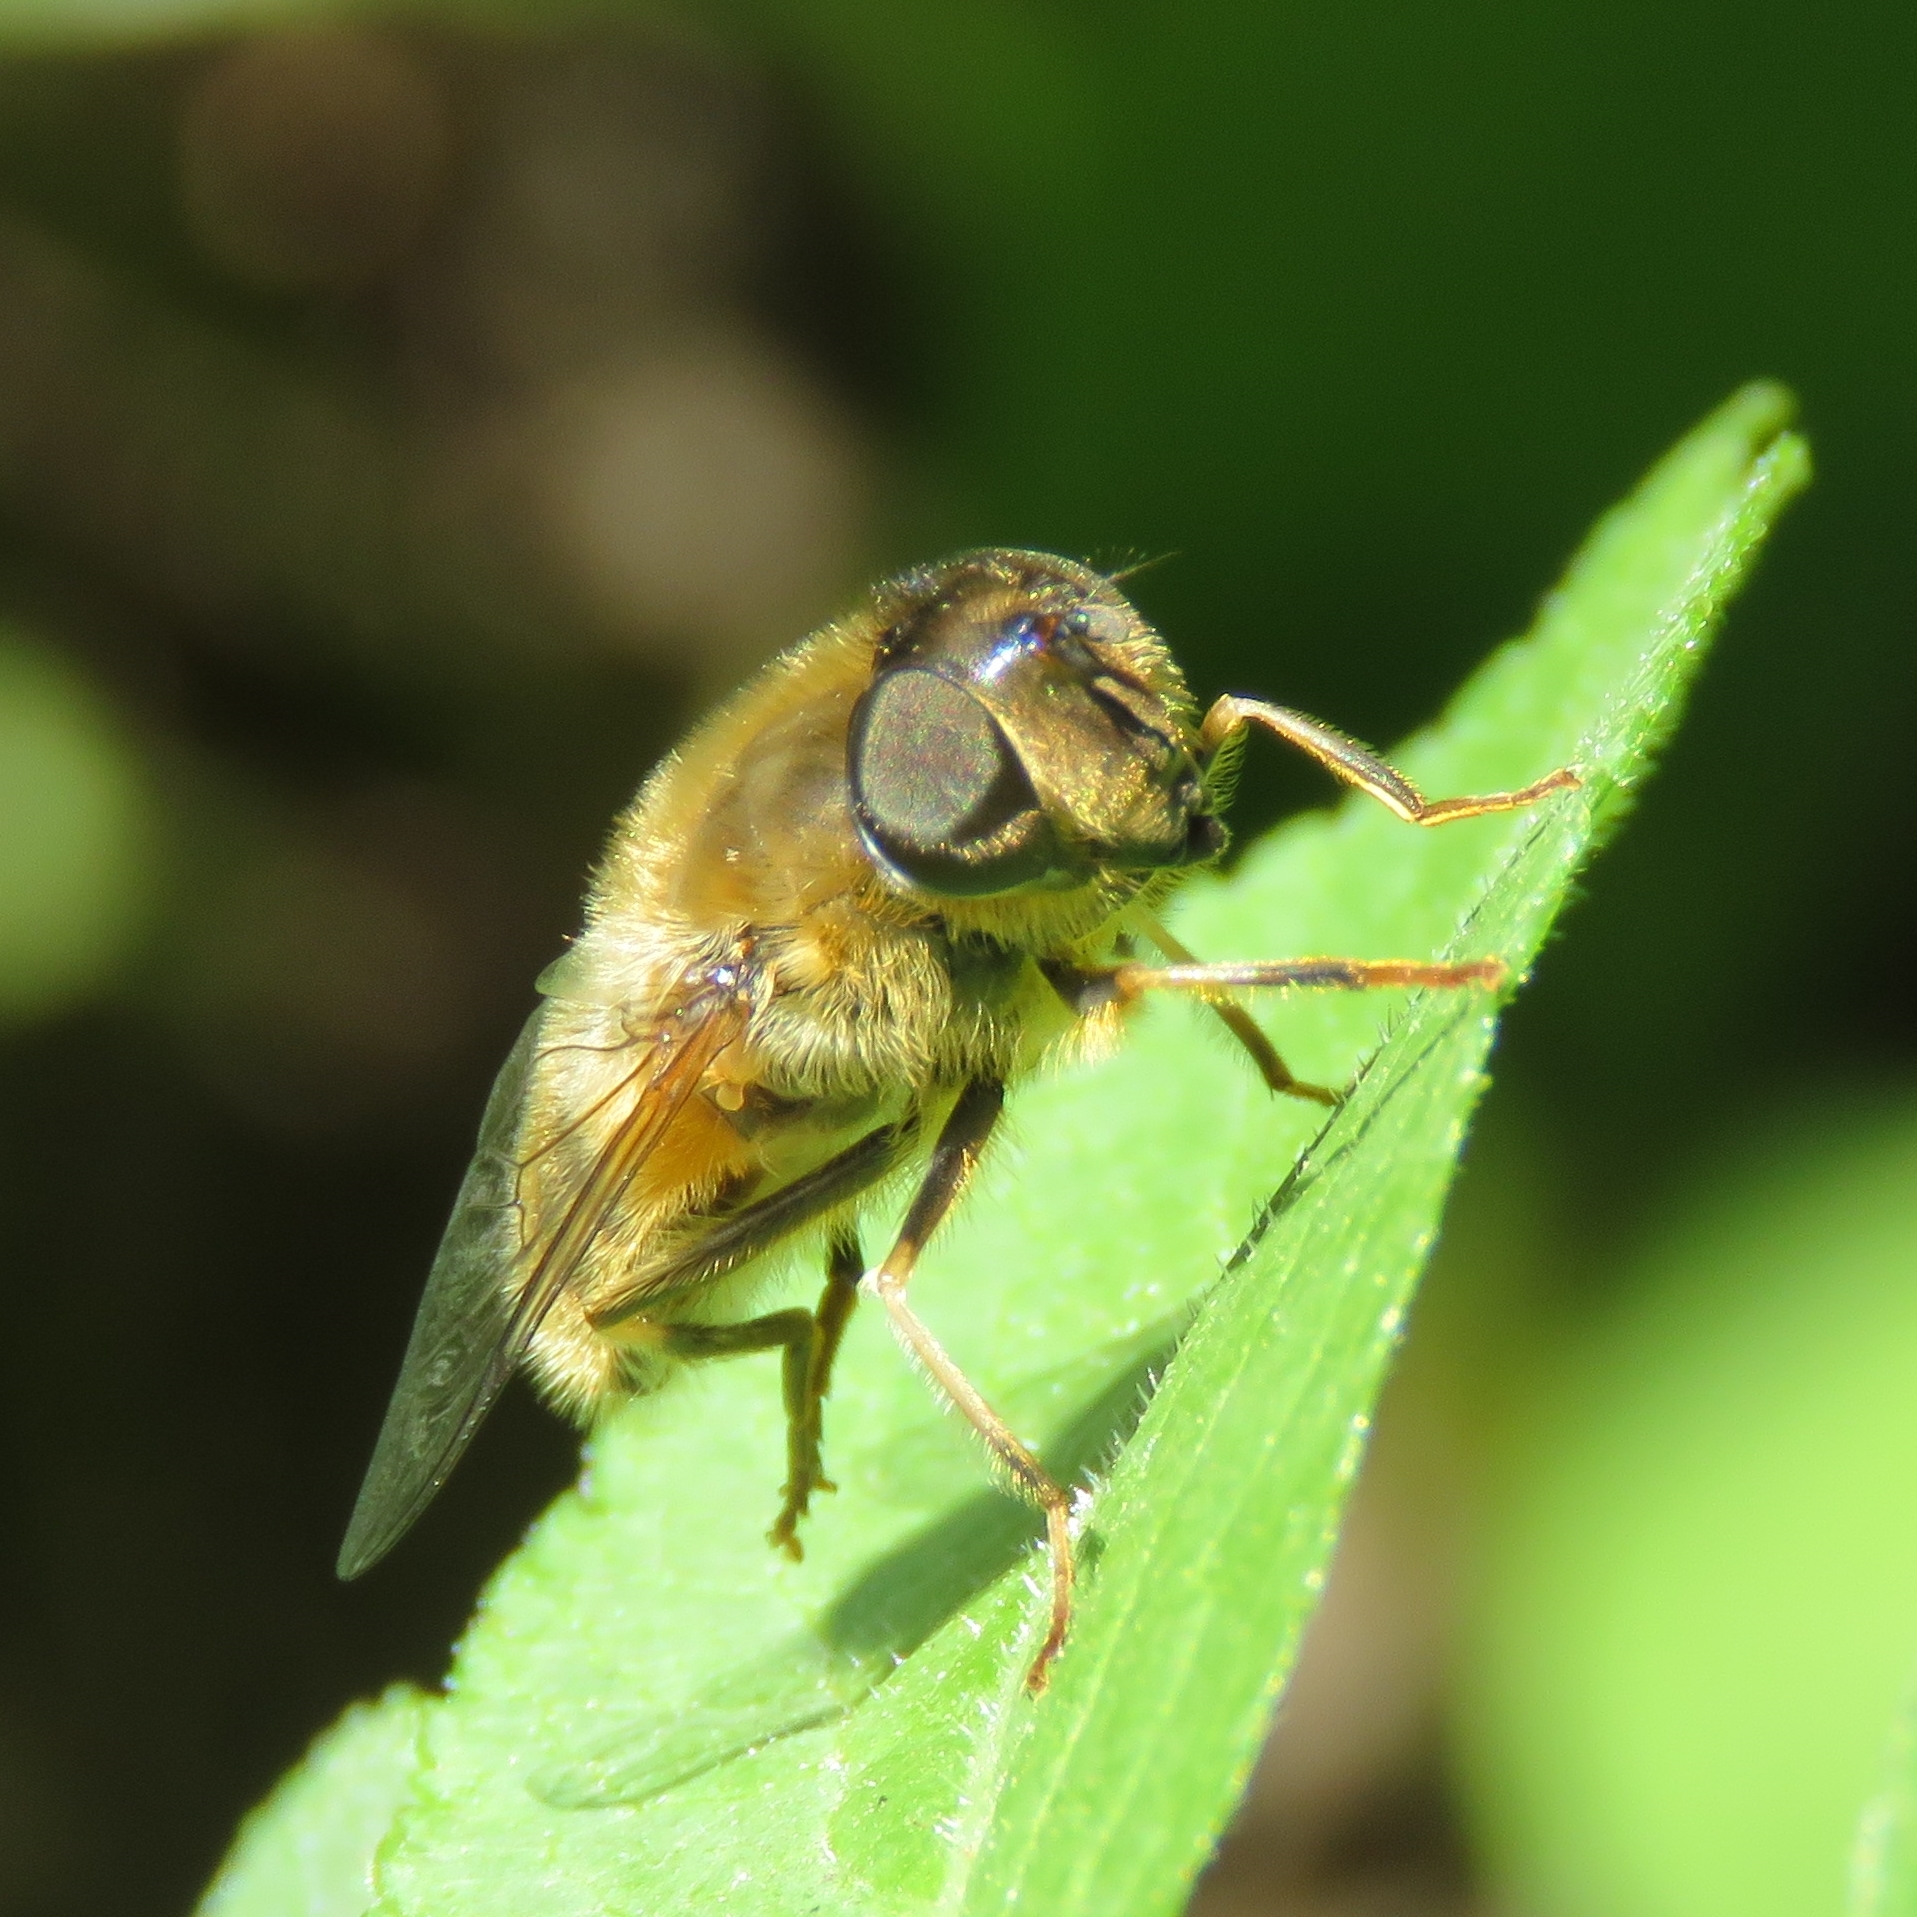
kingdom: Animalia
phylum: Arthropoda
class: Insecta
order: Diptera
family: Syrphidae
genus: Eristalis
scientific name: Eristalis pertinax
